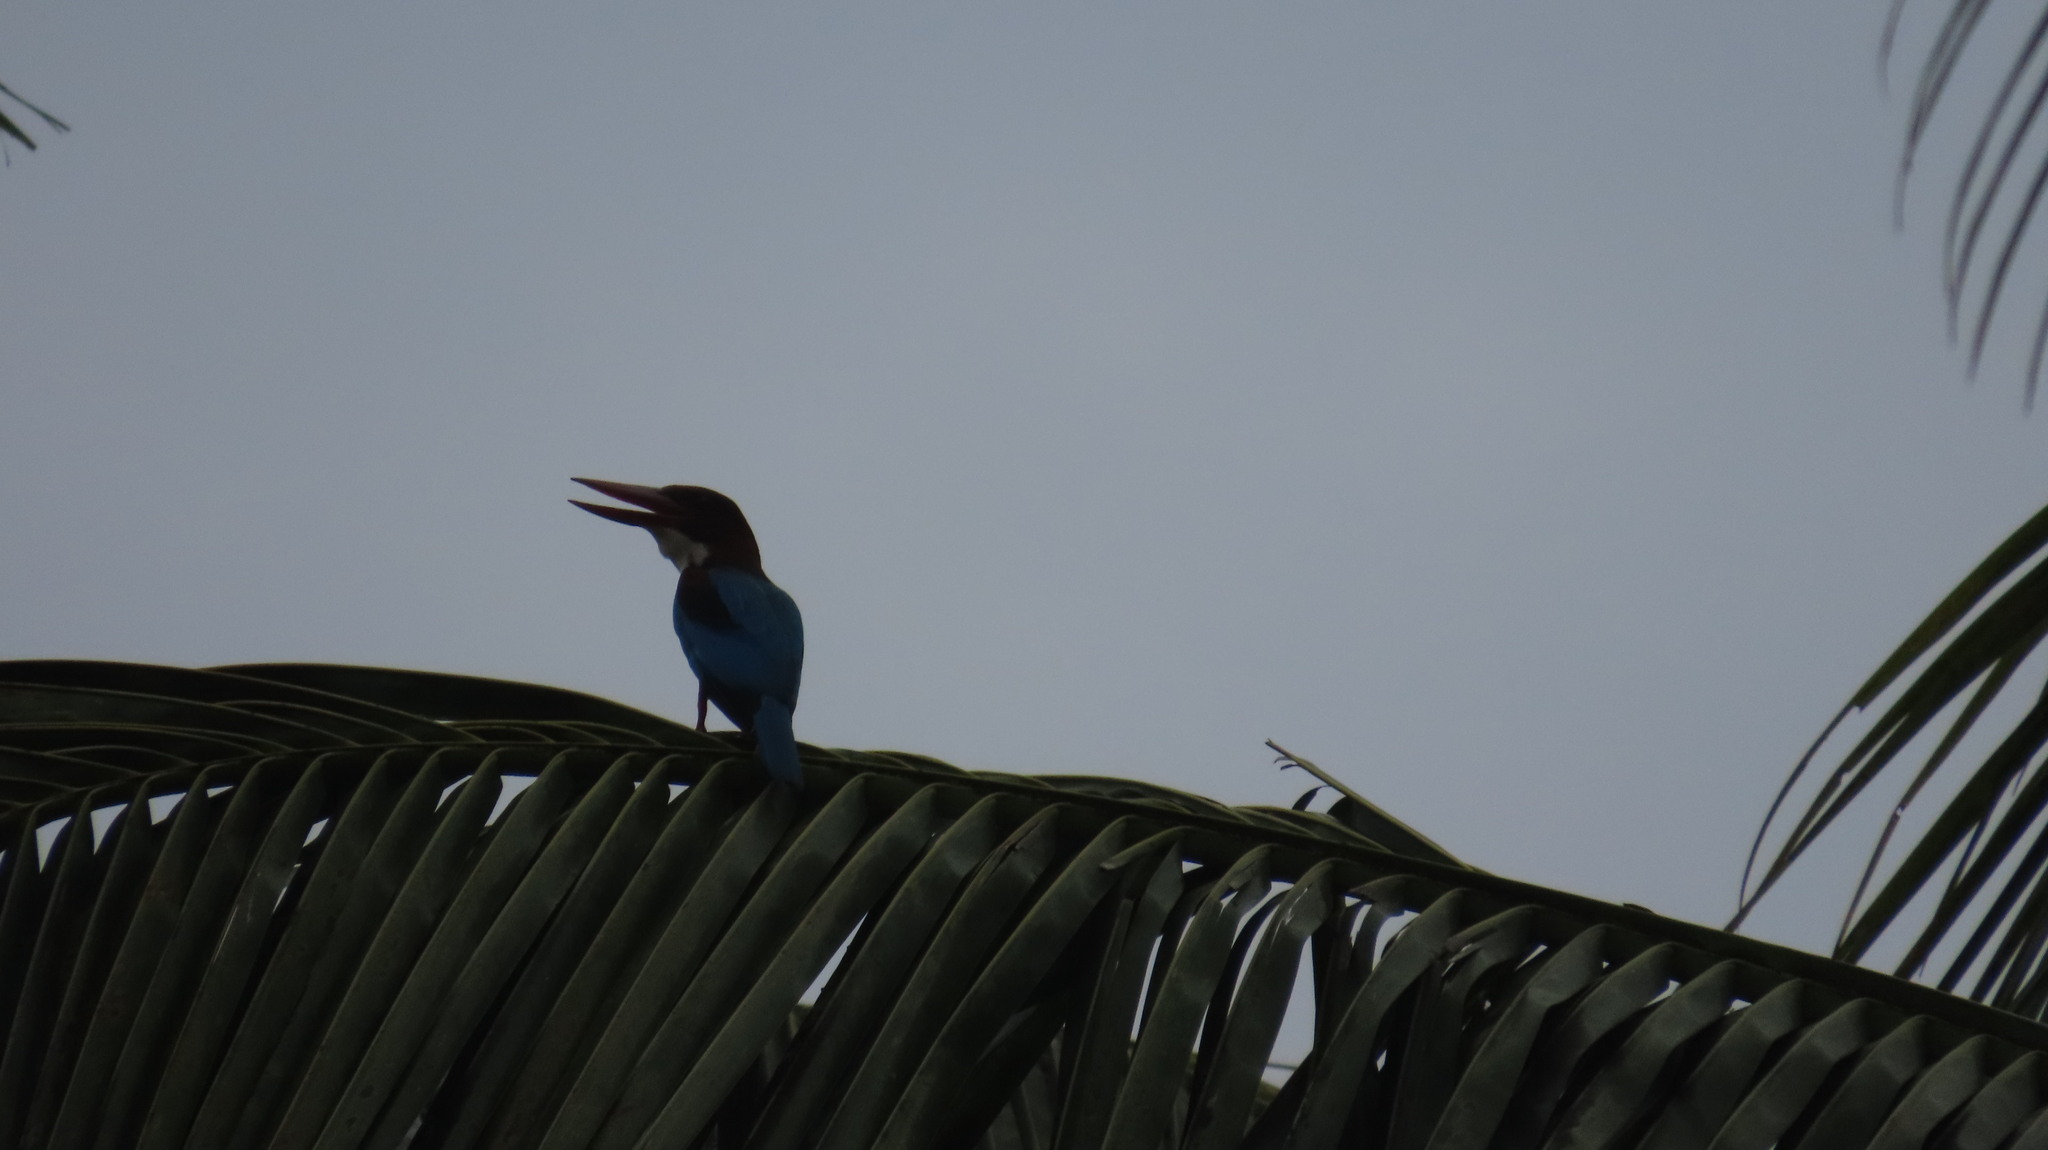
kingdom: Animalia
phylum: Chordata
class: Aves
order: Coraciiformes
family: Alcedinidae
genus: Halcyon
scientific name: Halcyon smyrnensis
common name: White-throated kingfisher
